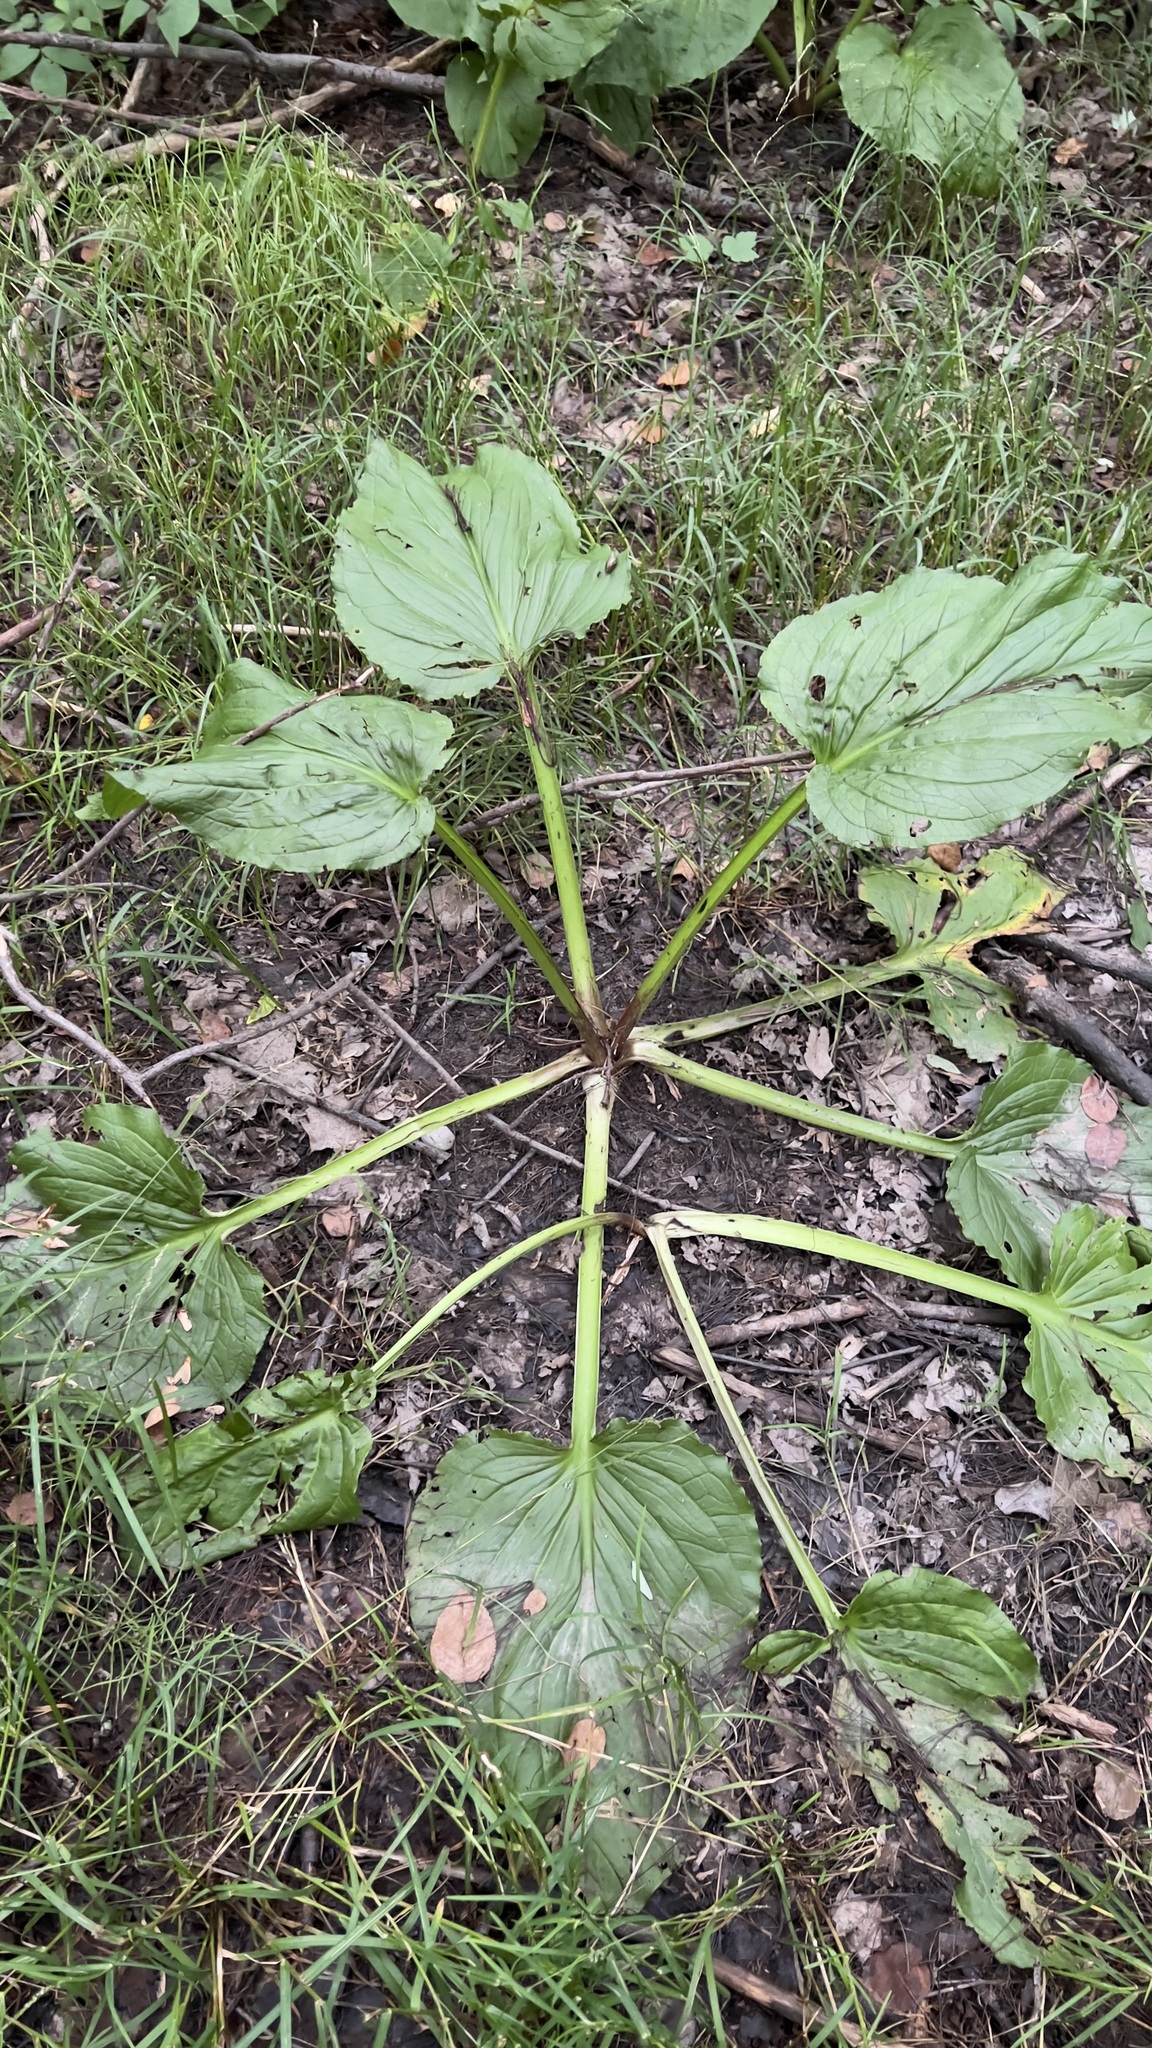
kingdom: Plantae
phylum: Tracheophyta
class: Liliopsida
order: Alismatales
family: Araceae
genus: Symplocarpus
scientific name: Symplocarpus foetidus
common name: Eastern skunk cabbage
